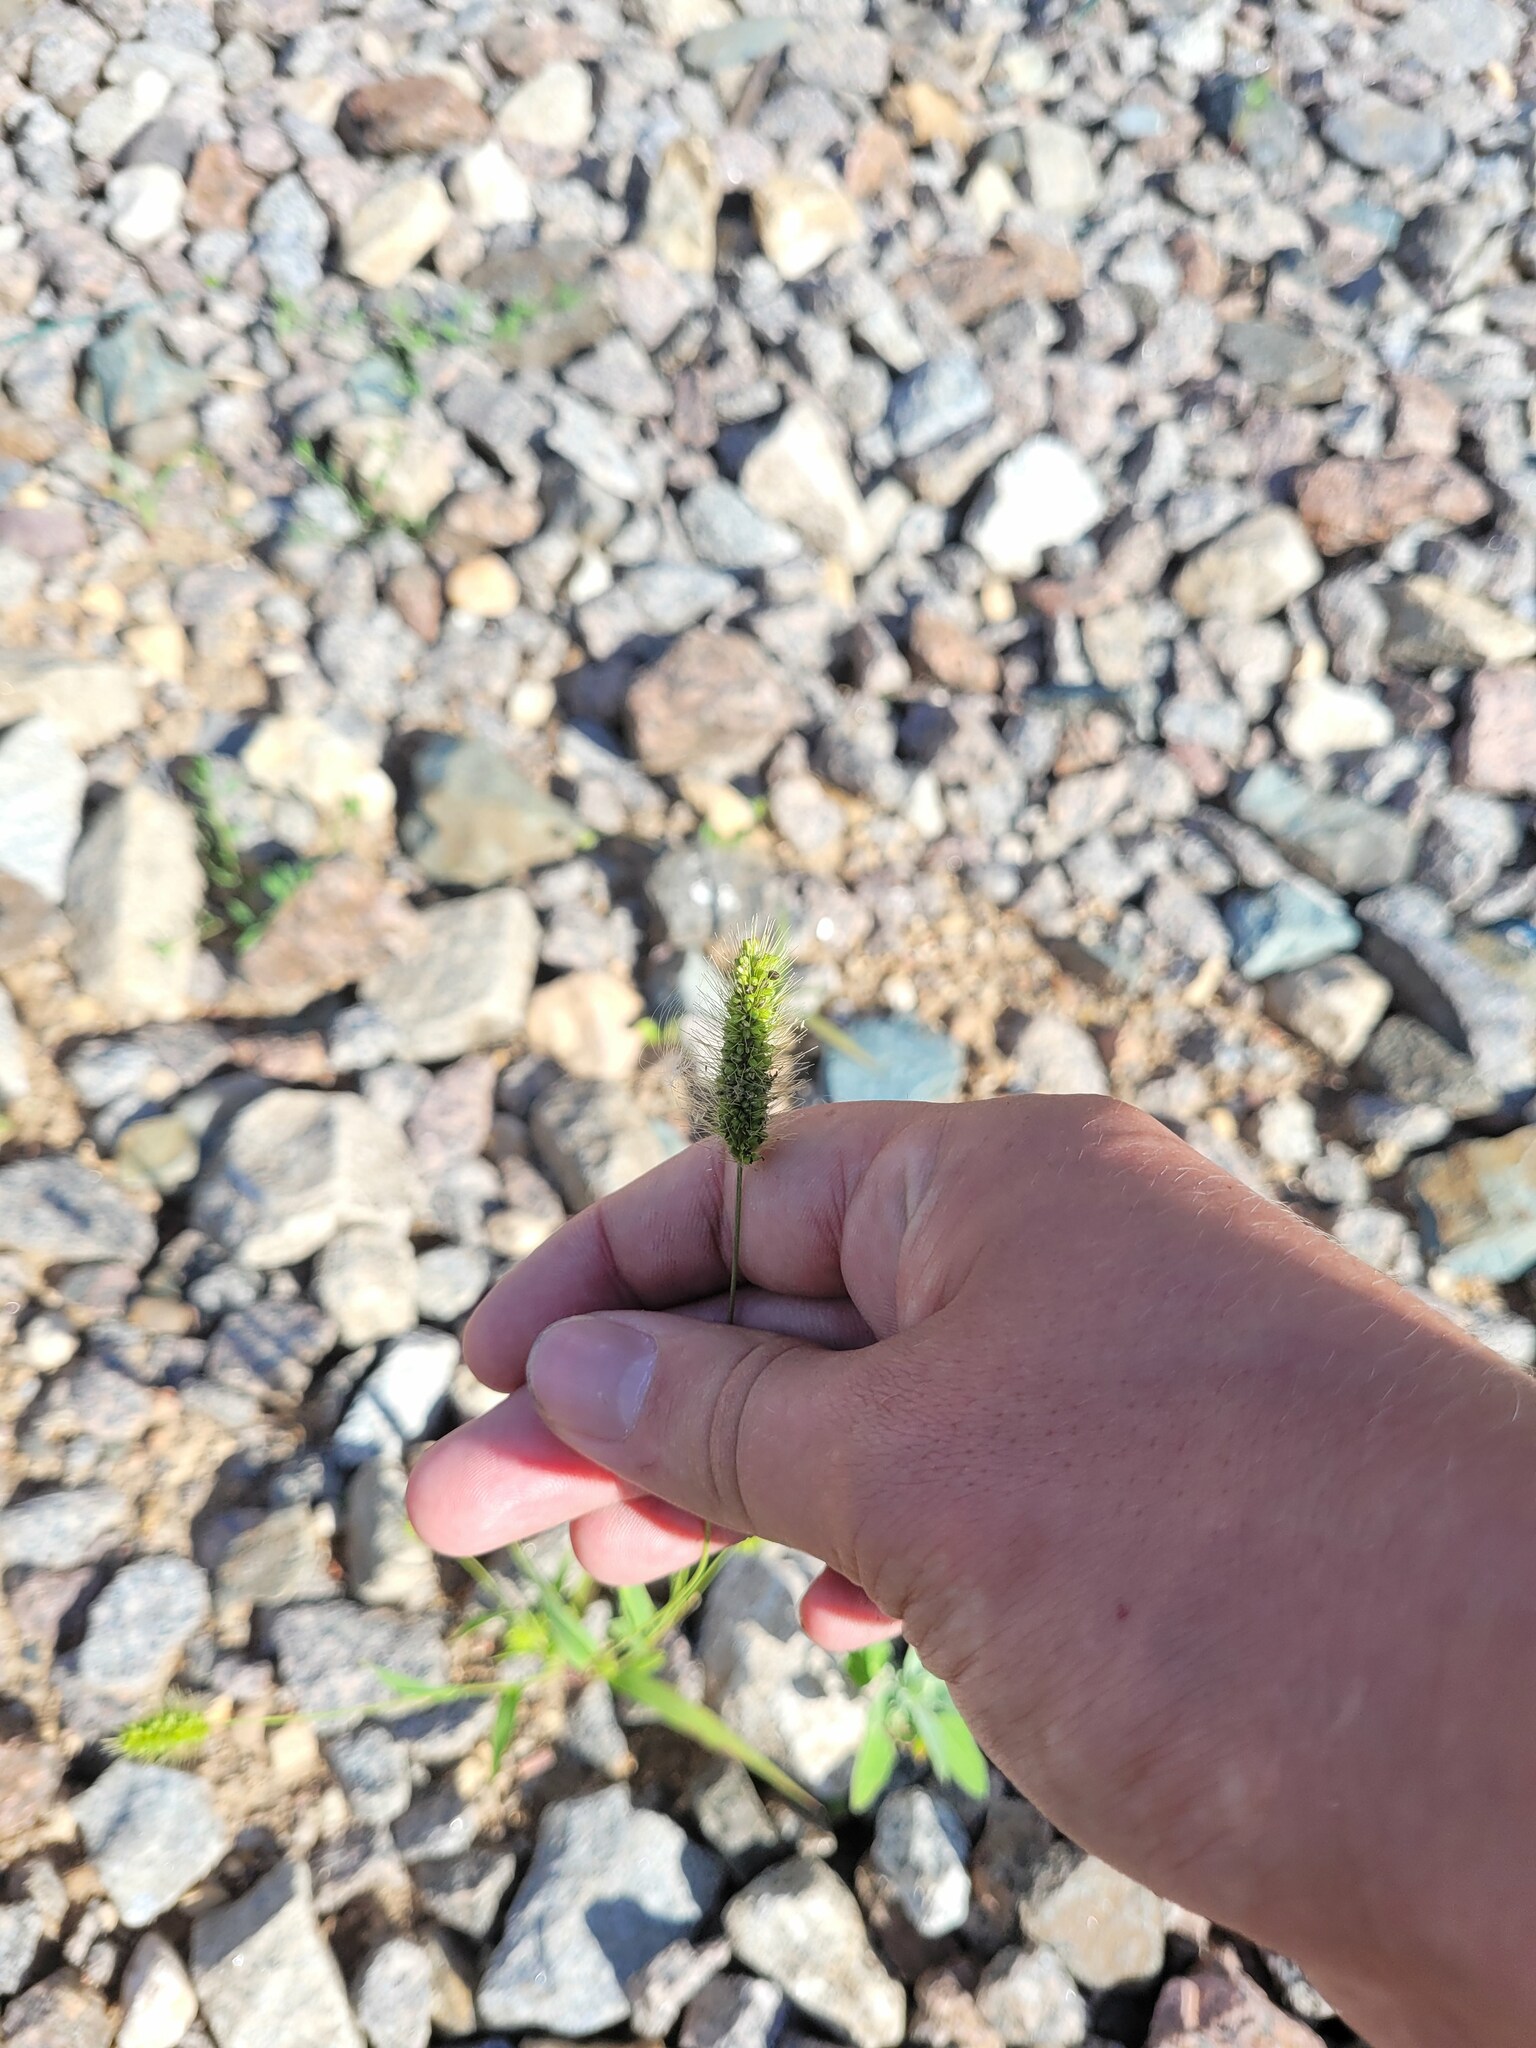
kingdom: Plantae
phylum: Tracheophyta
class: Liliopsida
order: Poales
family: Poaceae
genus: Setaria
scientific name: Setaria viridis
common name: Green bristlegrass
